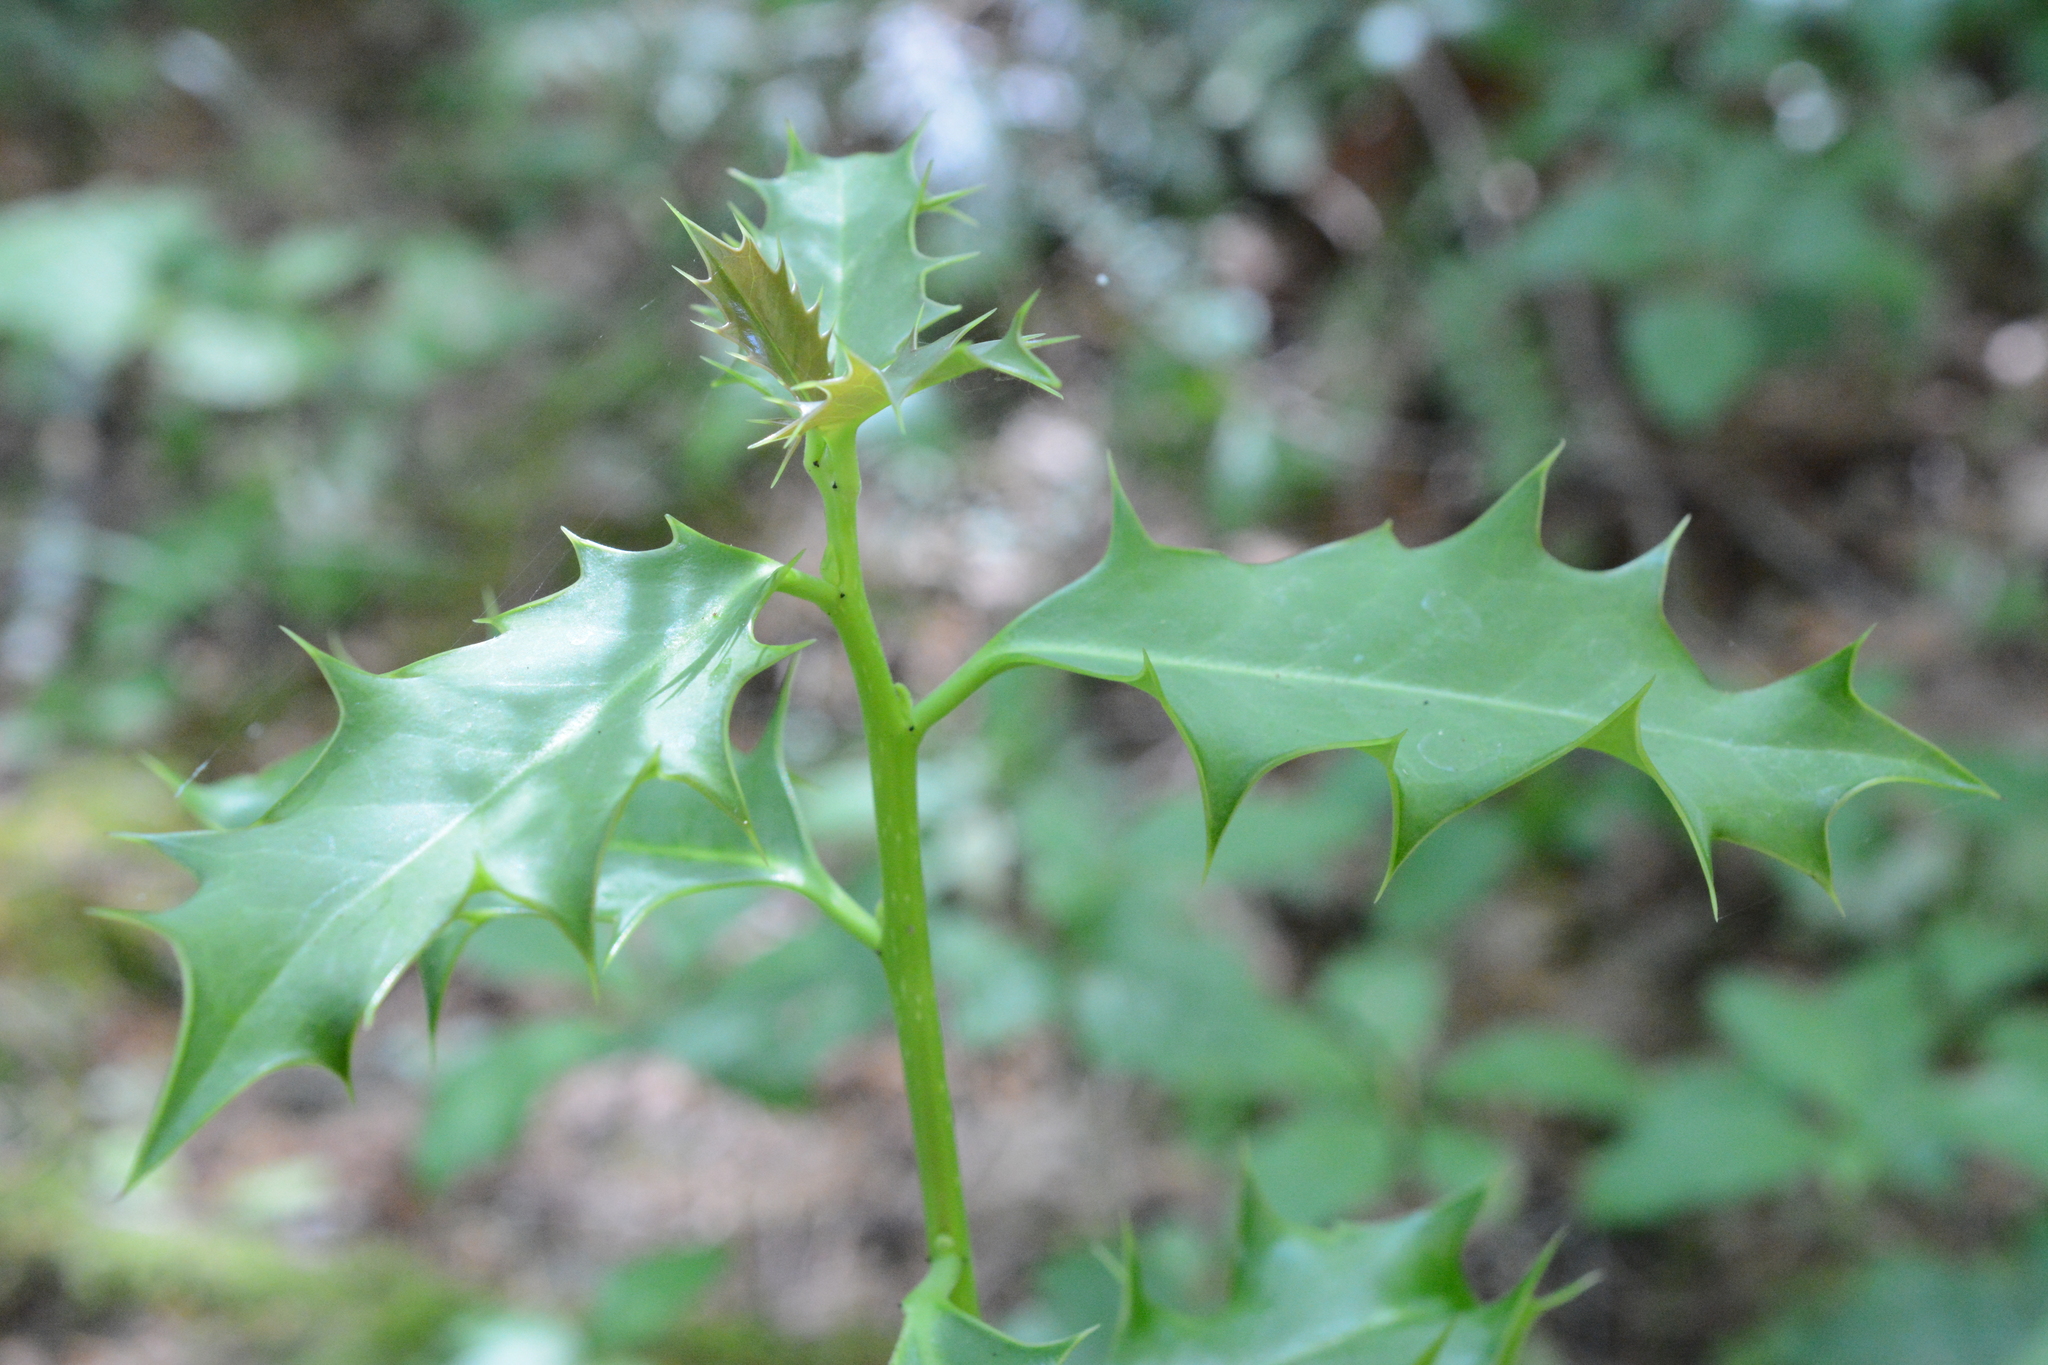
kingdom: Plantae
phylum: Tracheophyta
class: Magnoliopsida
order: Aquifoliales
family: Aquifoliaceae
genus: Ilex
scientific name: Ilex aquifolium
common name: English holly
